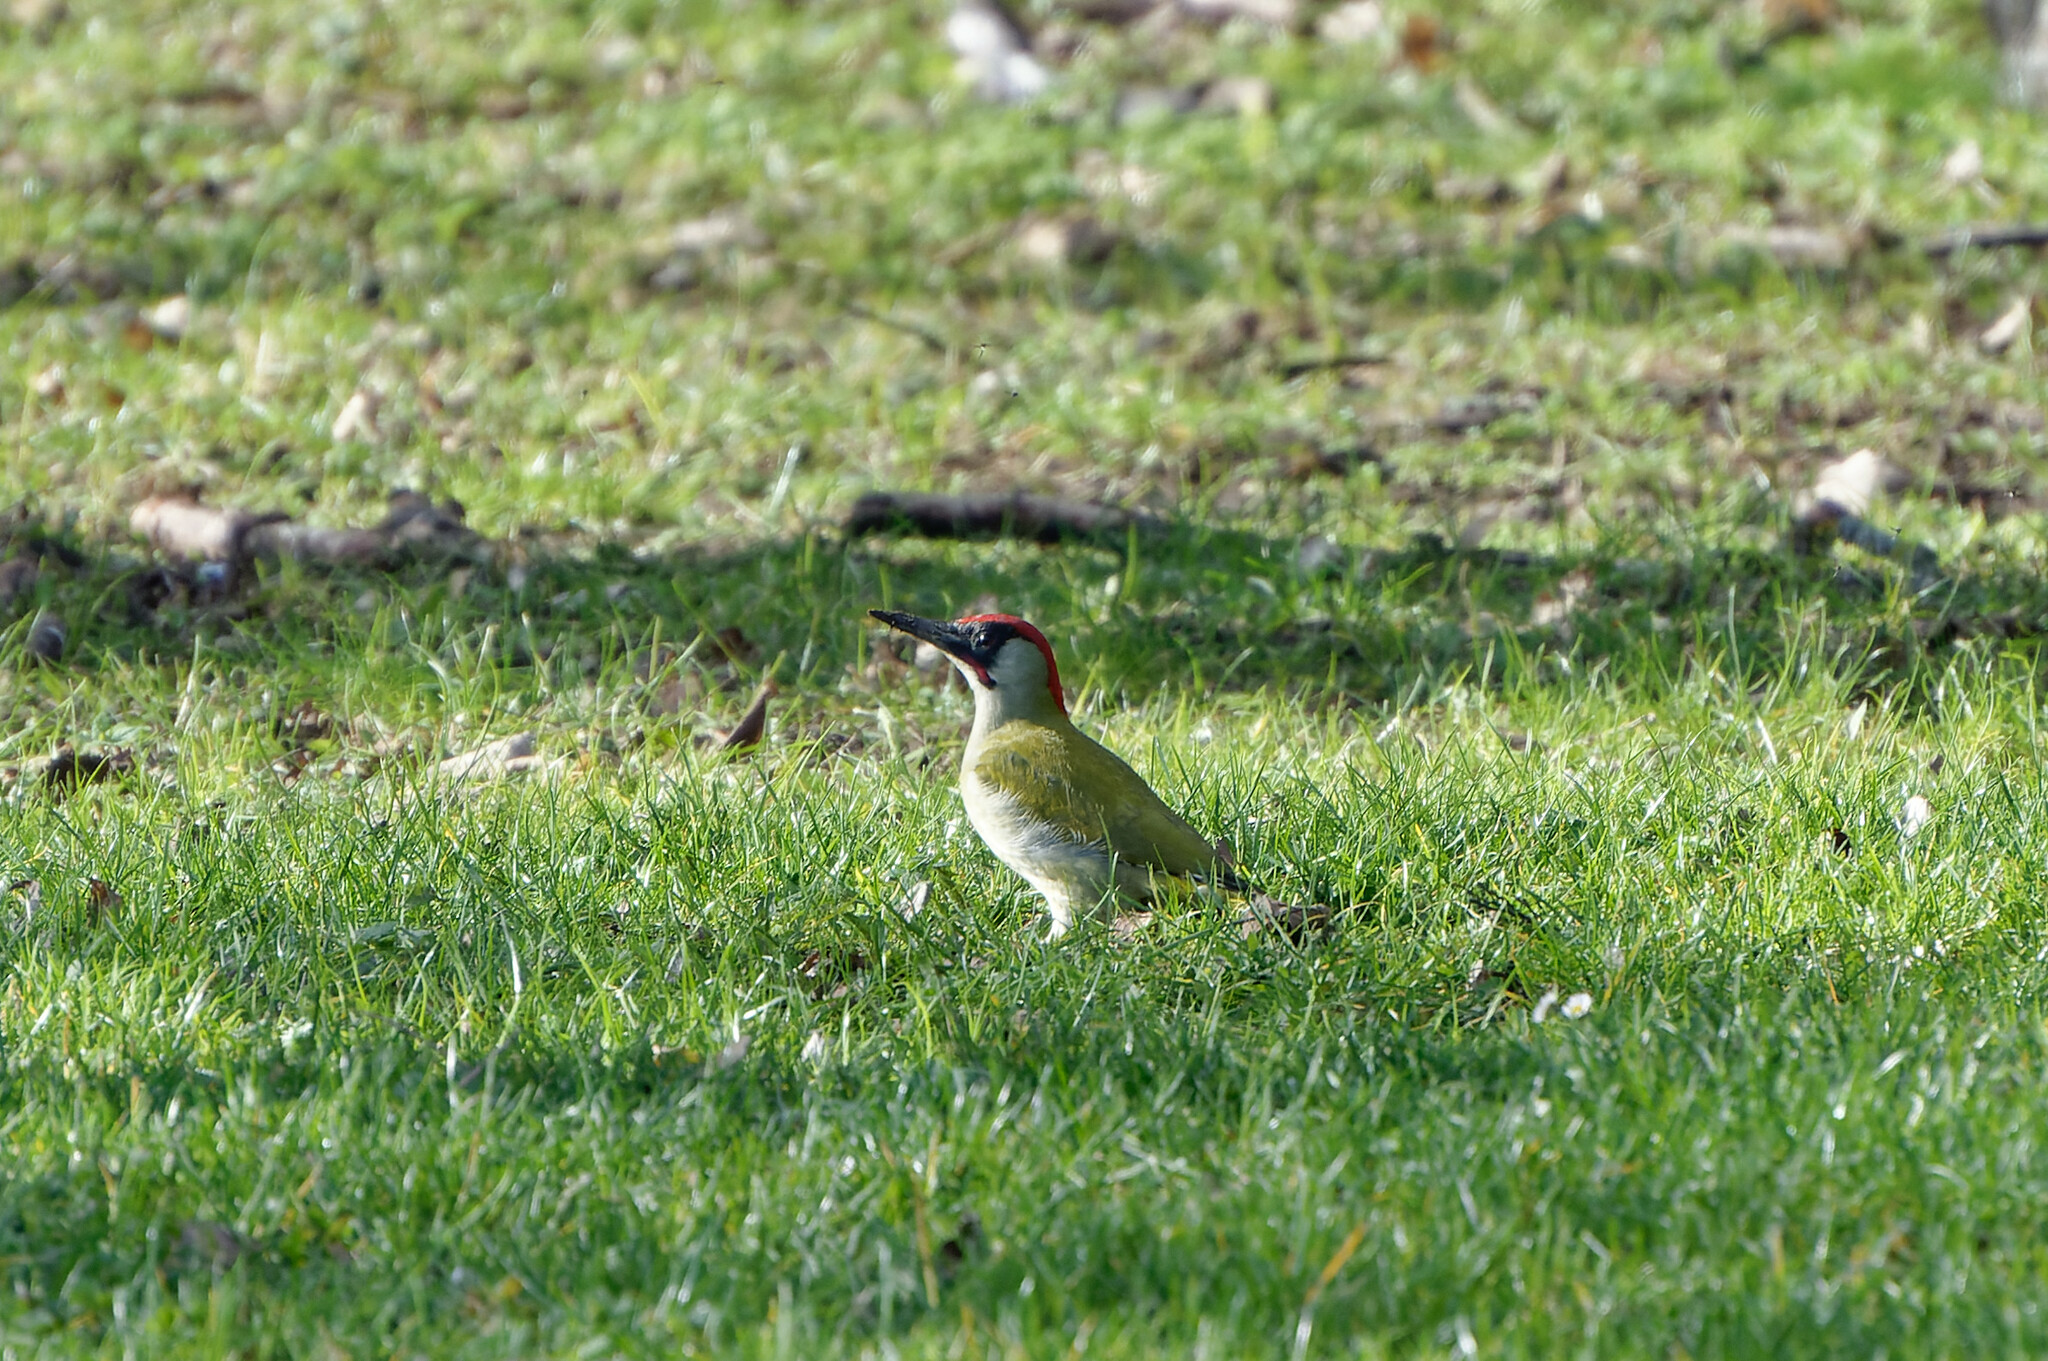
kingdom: Animalia
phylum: Chordata
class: Aves
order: Piciformes
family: Picidae
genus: Picus
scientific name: Picus viridis
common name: European green woodpecker
